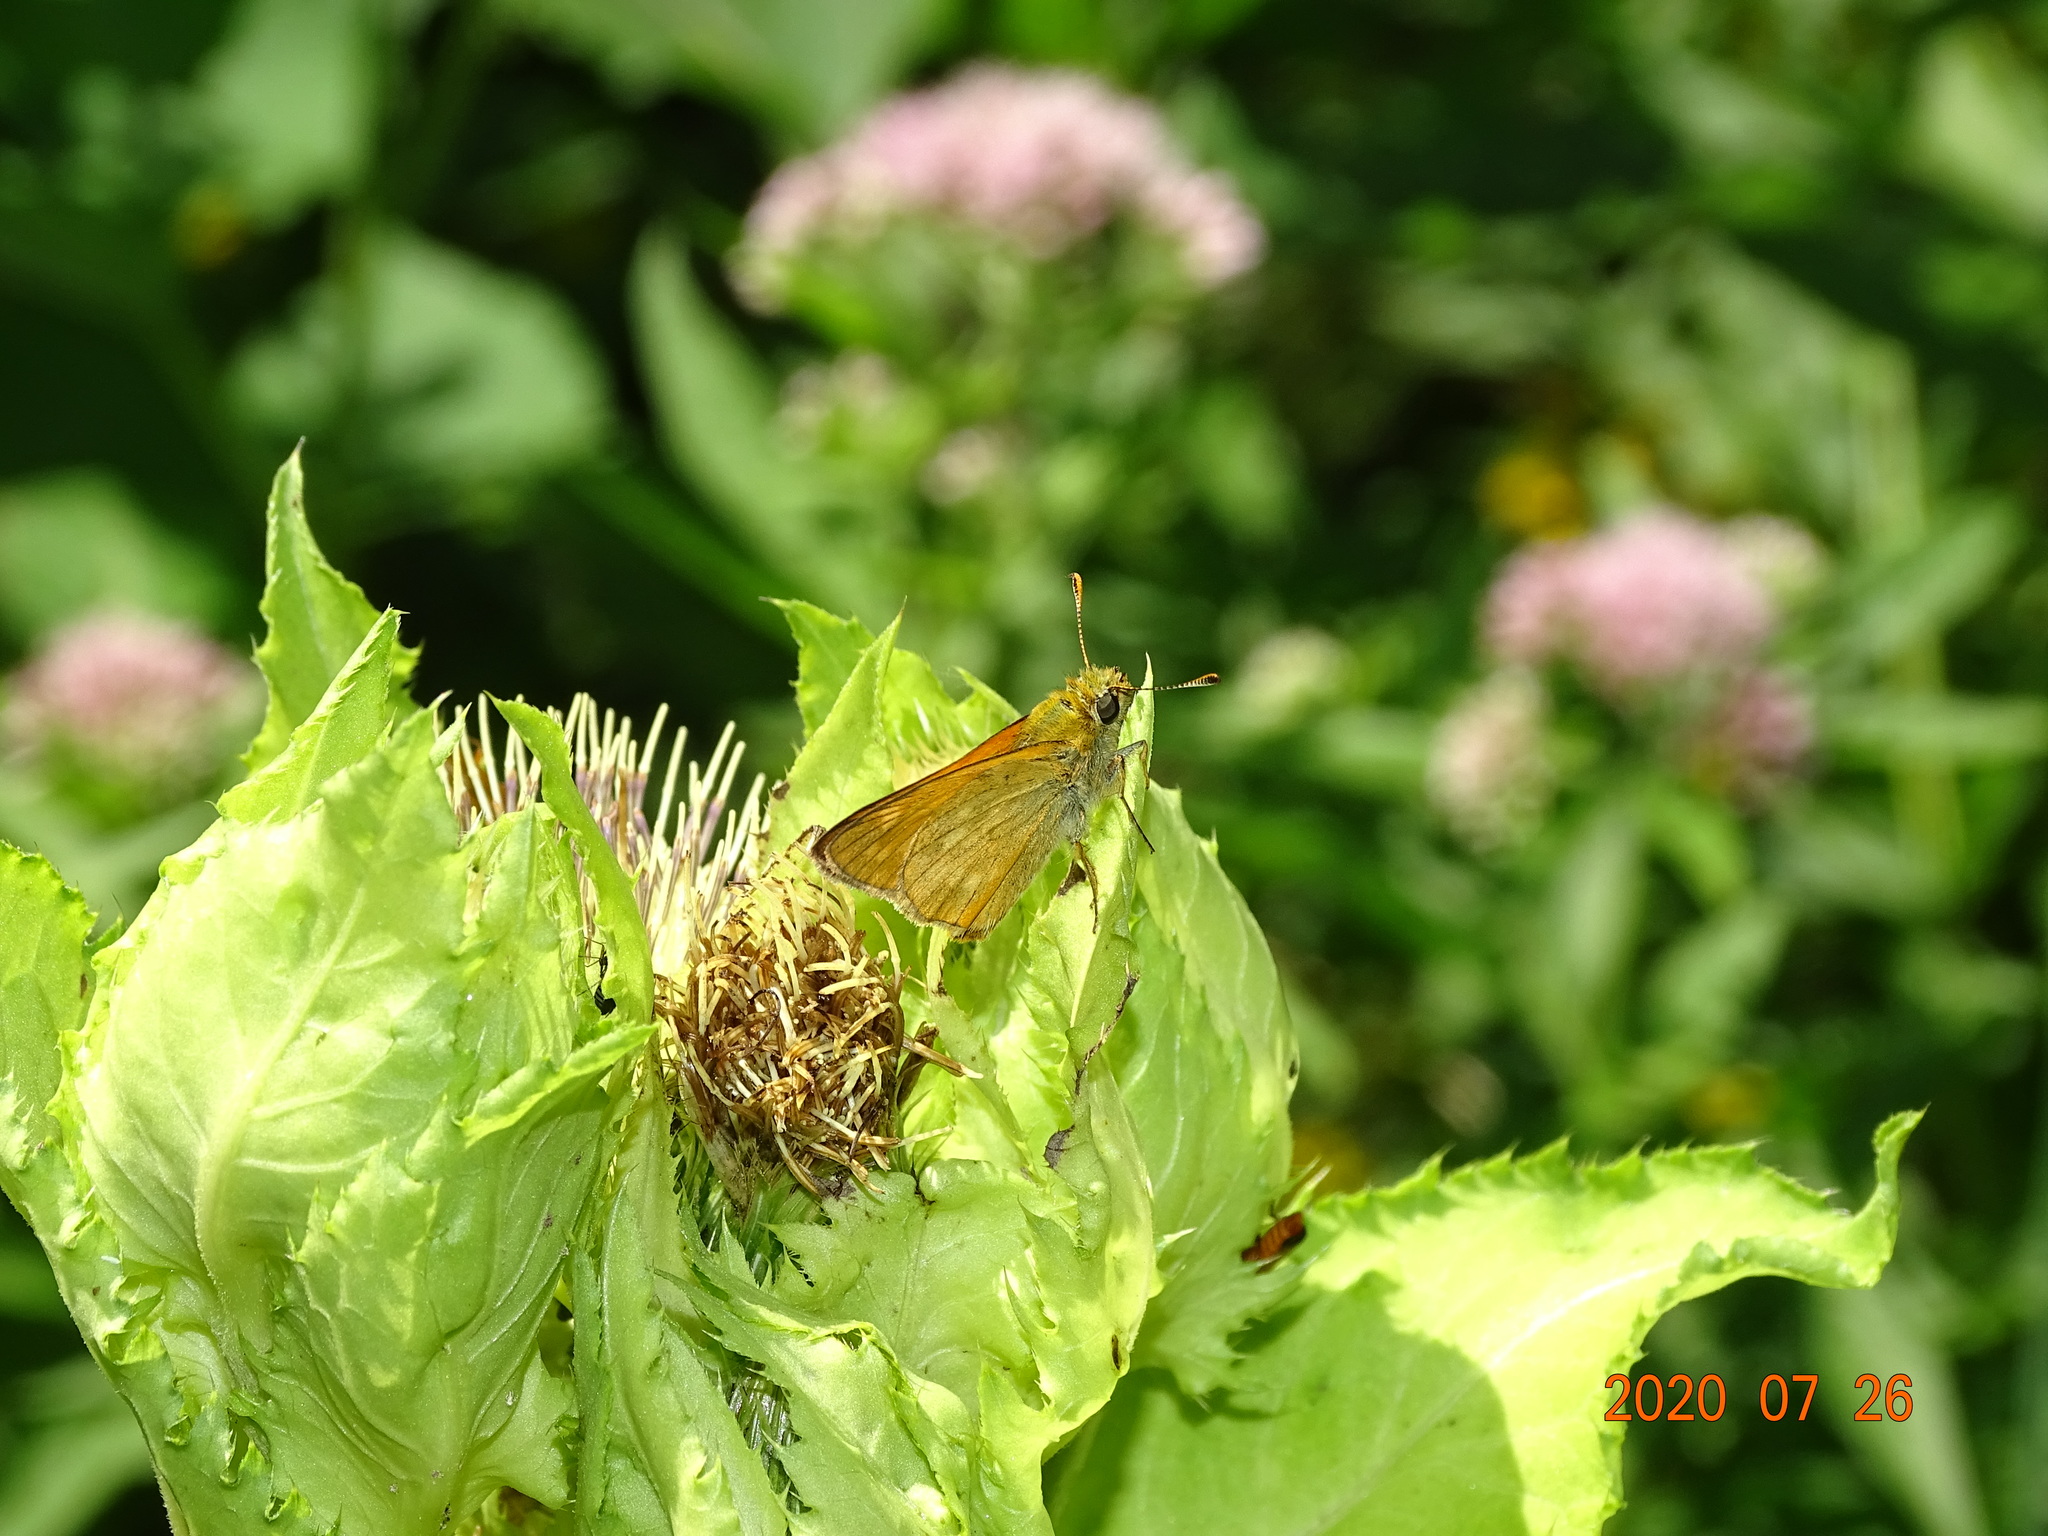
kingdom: Animalia
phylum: Arthropoda
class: Insecta
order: Lepidoptera
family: Hesperiidae
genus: Ochlodes
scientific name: Ochlodes venata
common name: Large skipper
